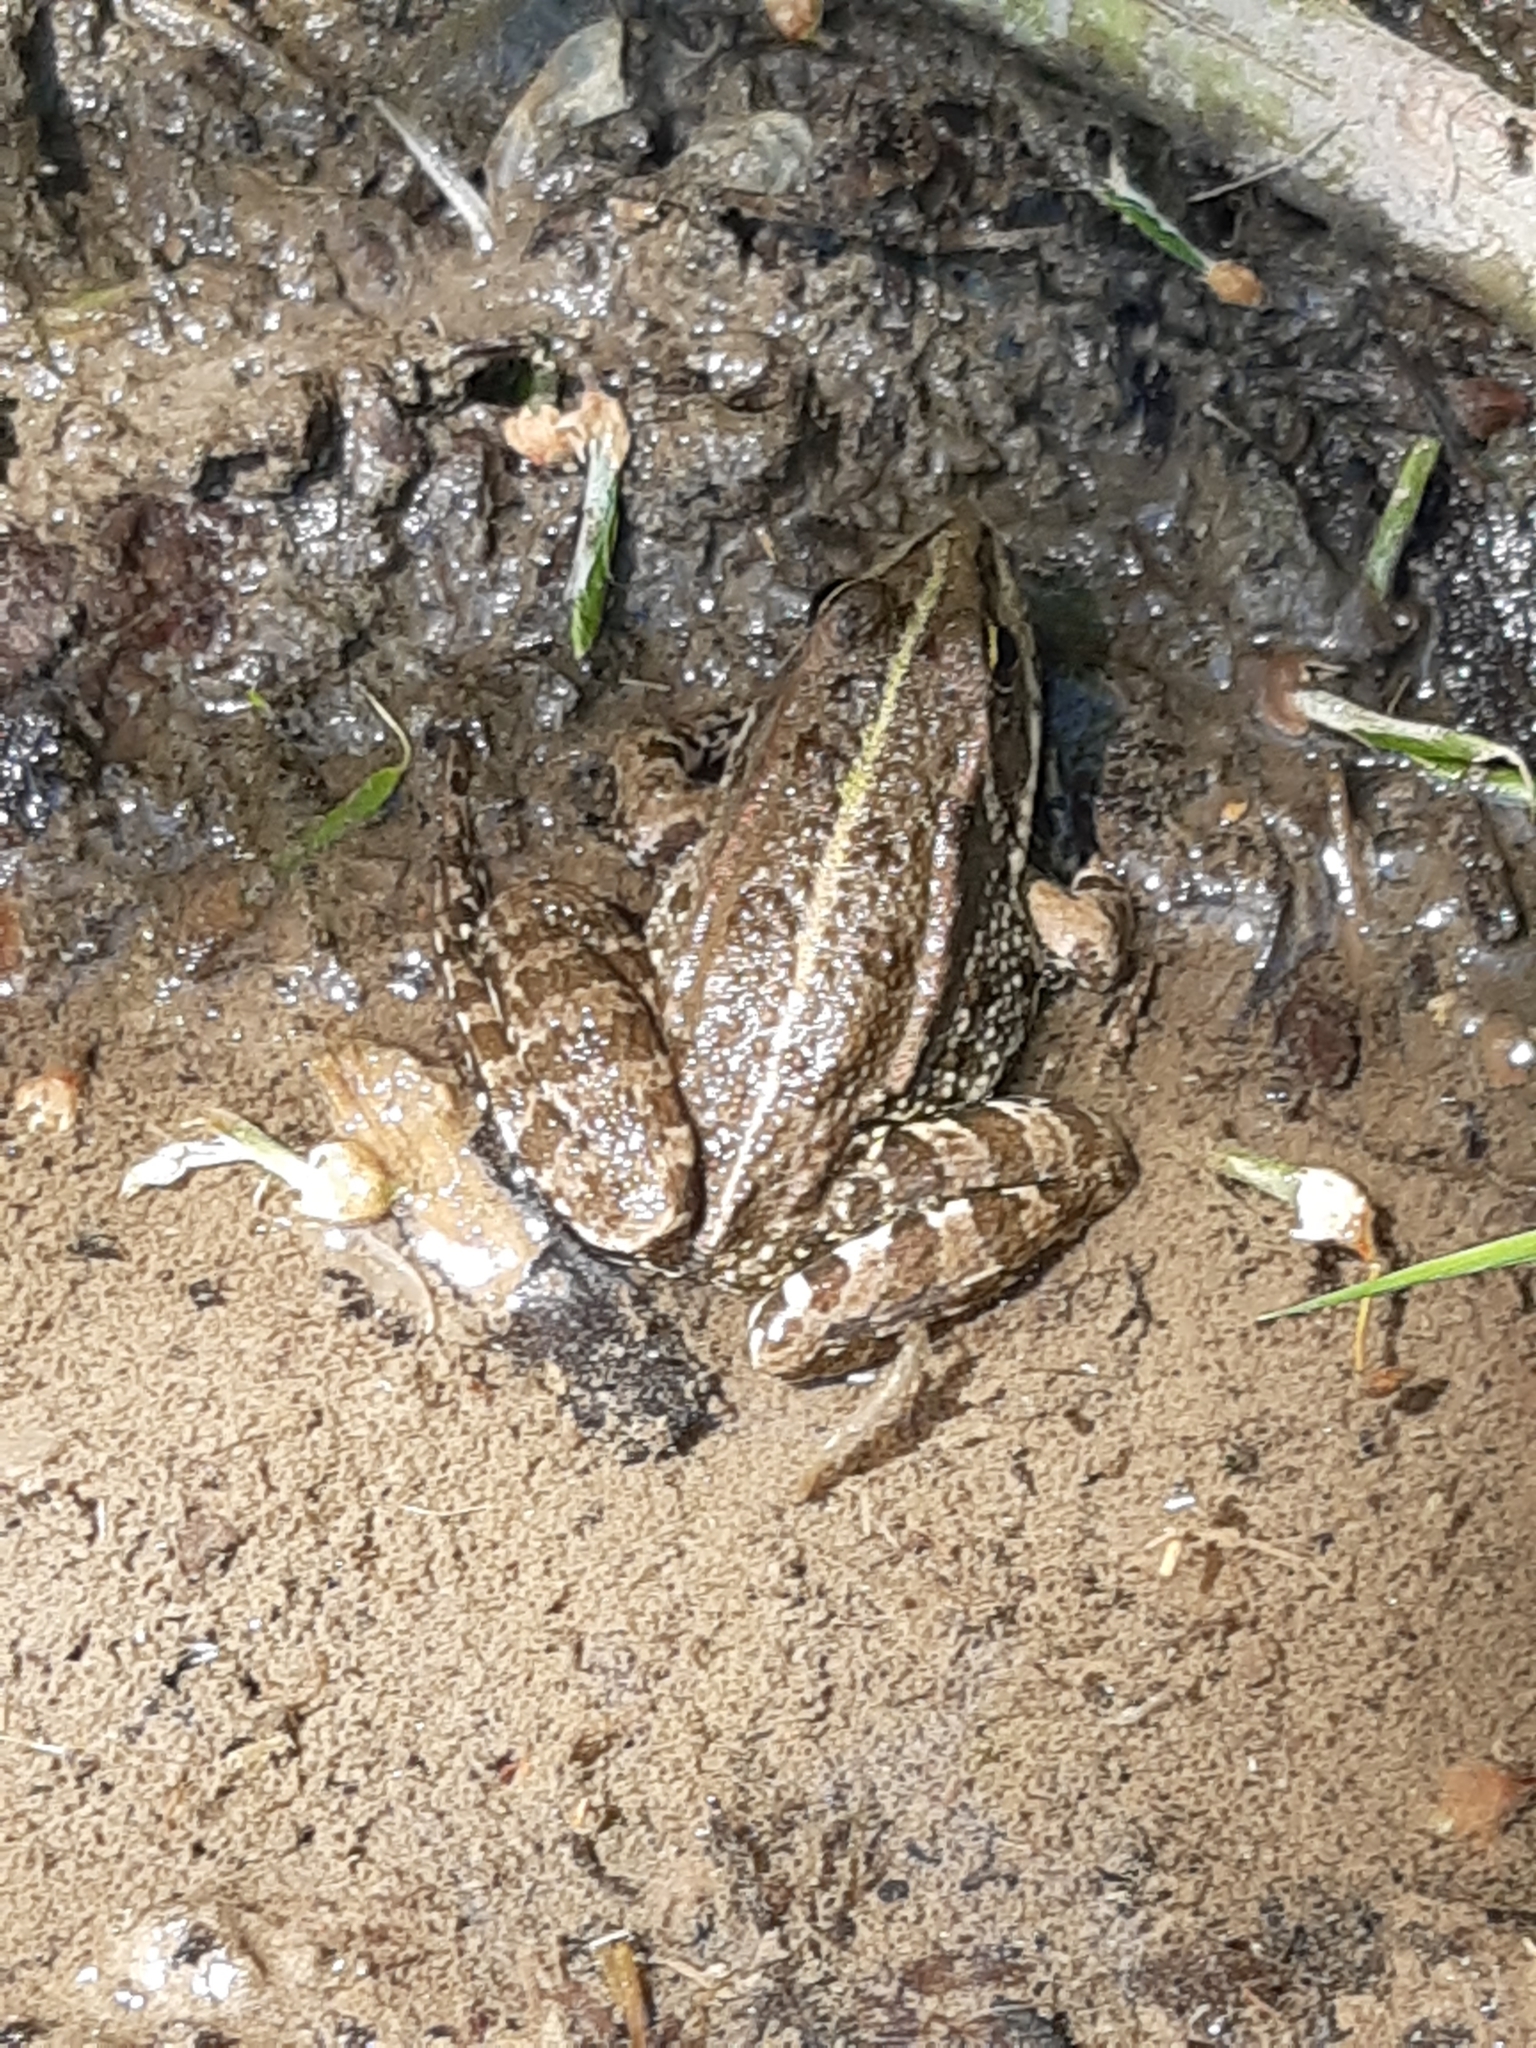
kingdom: Animalia
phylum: Chordata
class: Amphibia
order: Anura
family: Ranidae
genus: Pelophylax
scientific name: Pelophylax
